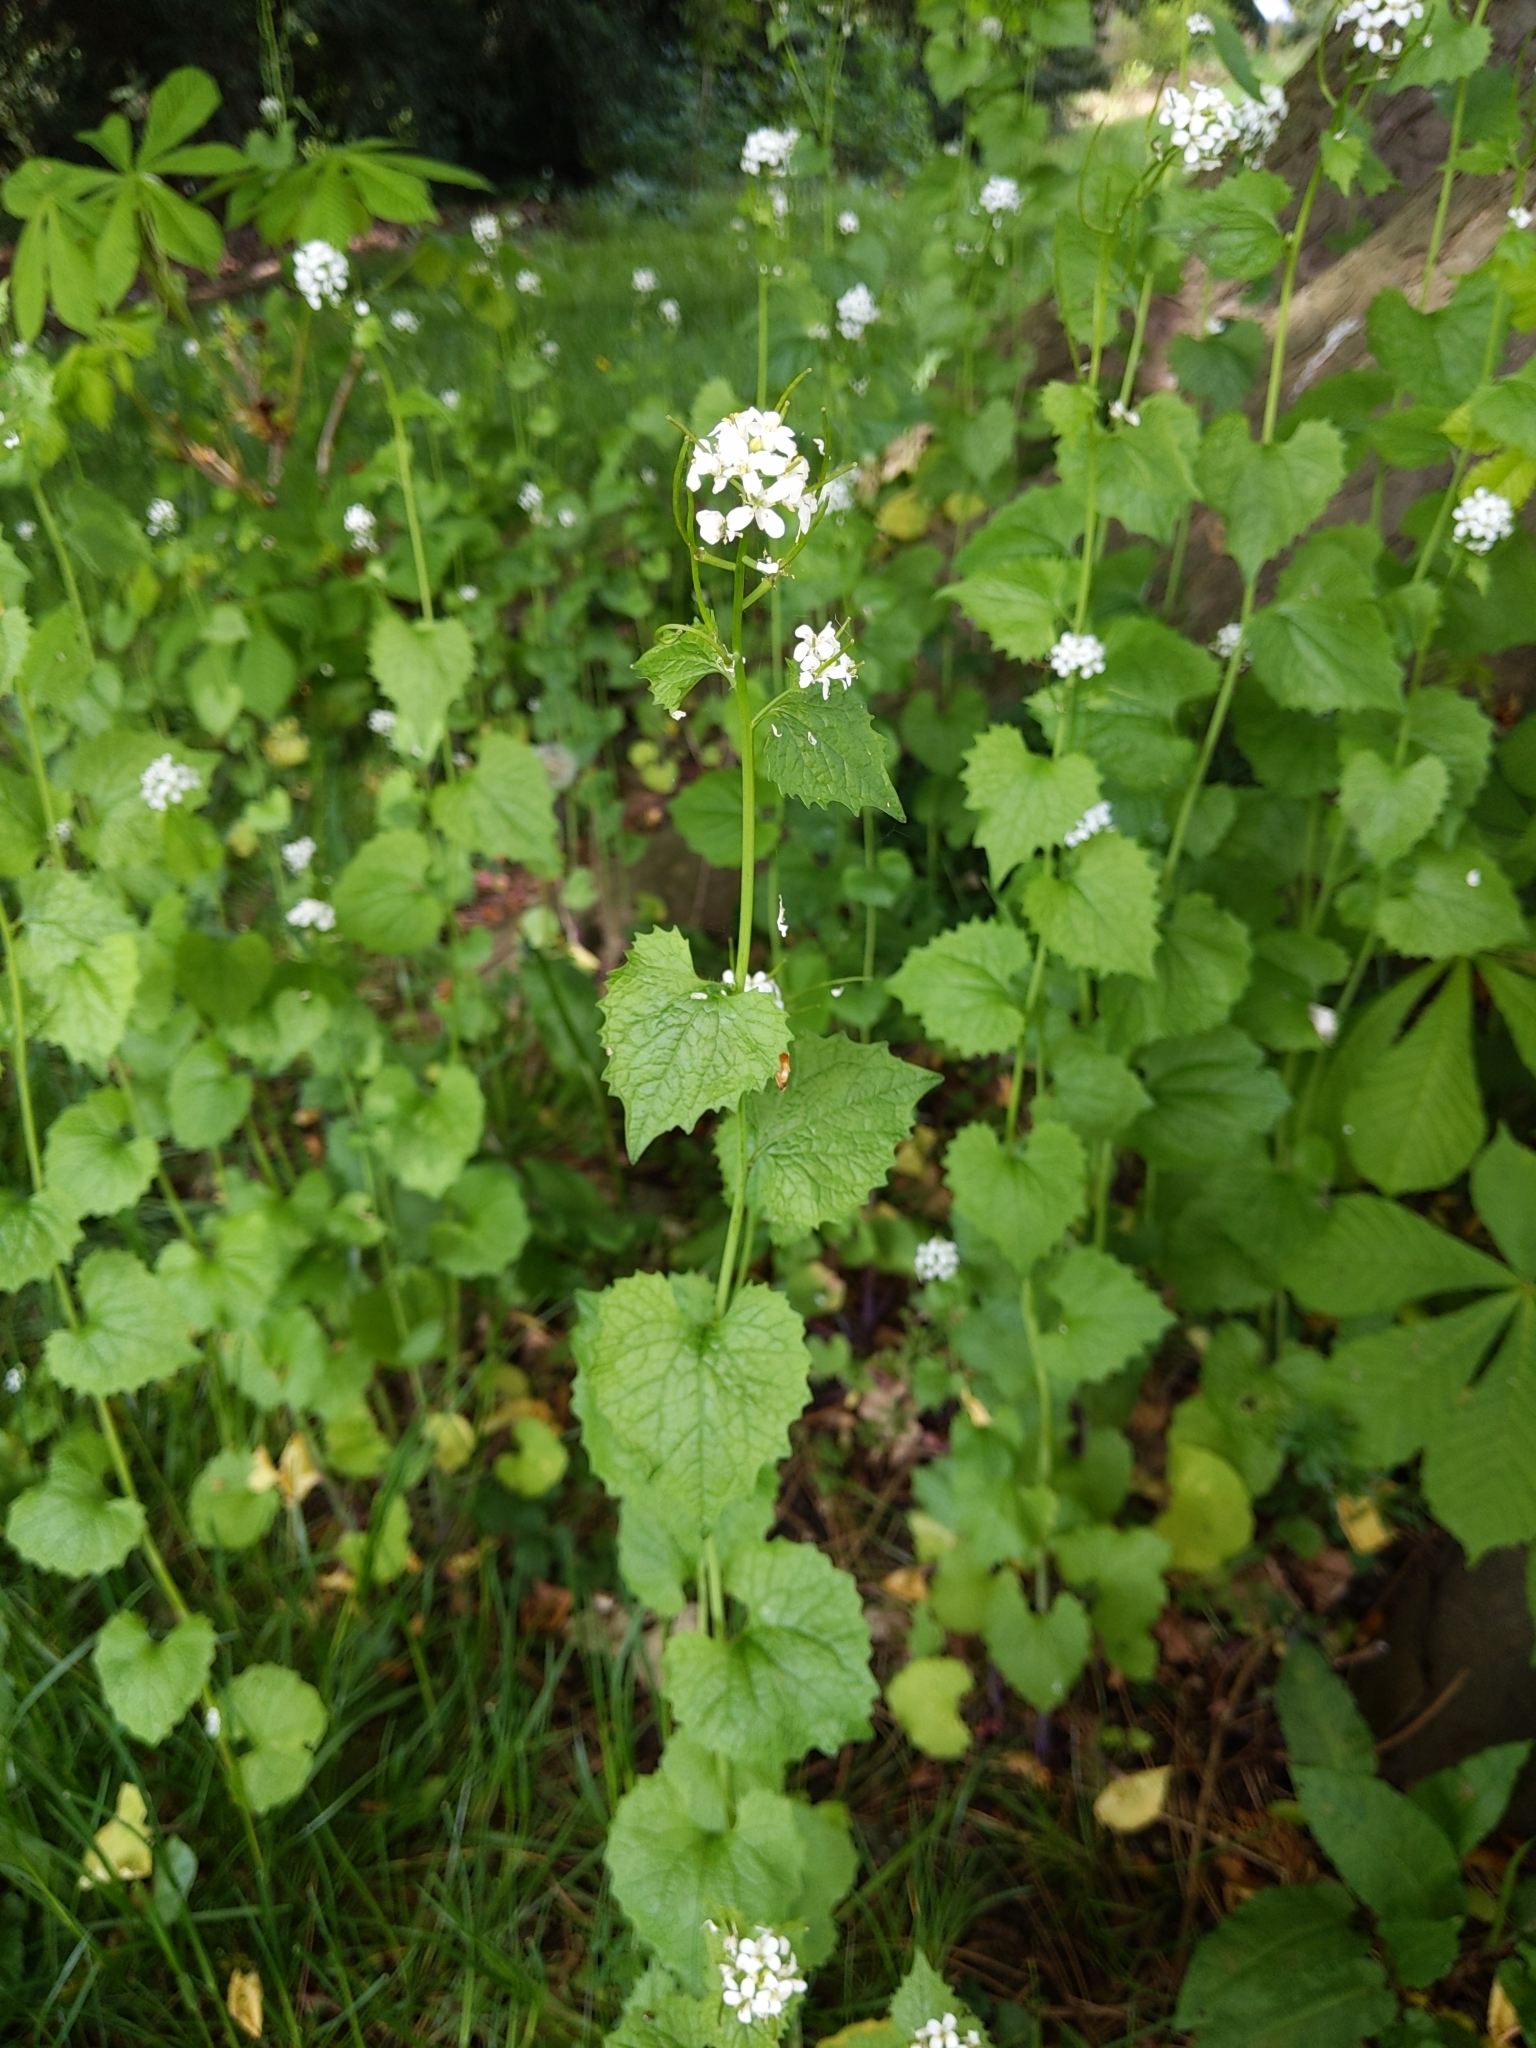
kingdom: Plantae
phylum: Tracheophyta
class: Magnoliopsida
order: Brassicales
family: Brassicaceae
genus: Alliaria
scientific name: Alliaria petiolata
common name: Garlic mustard
